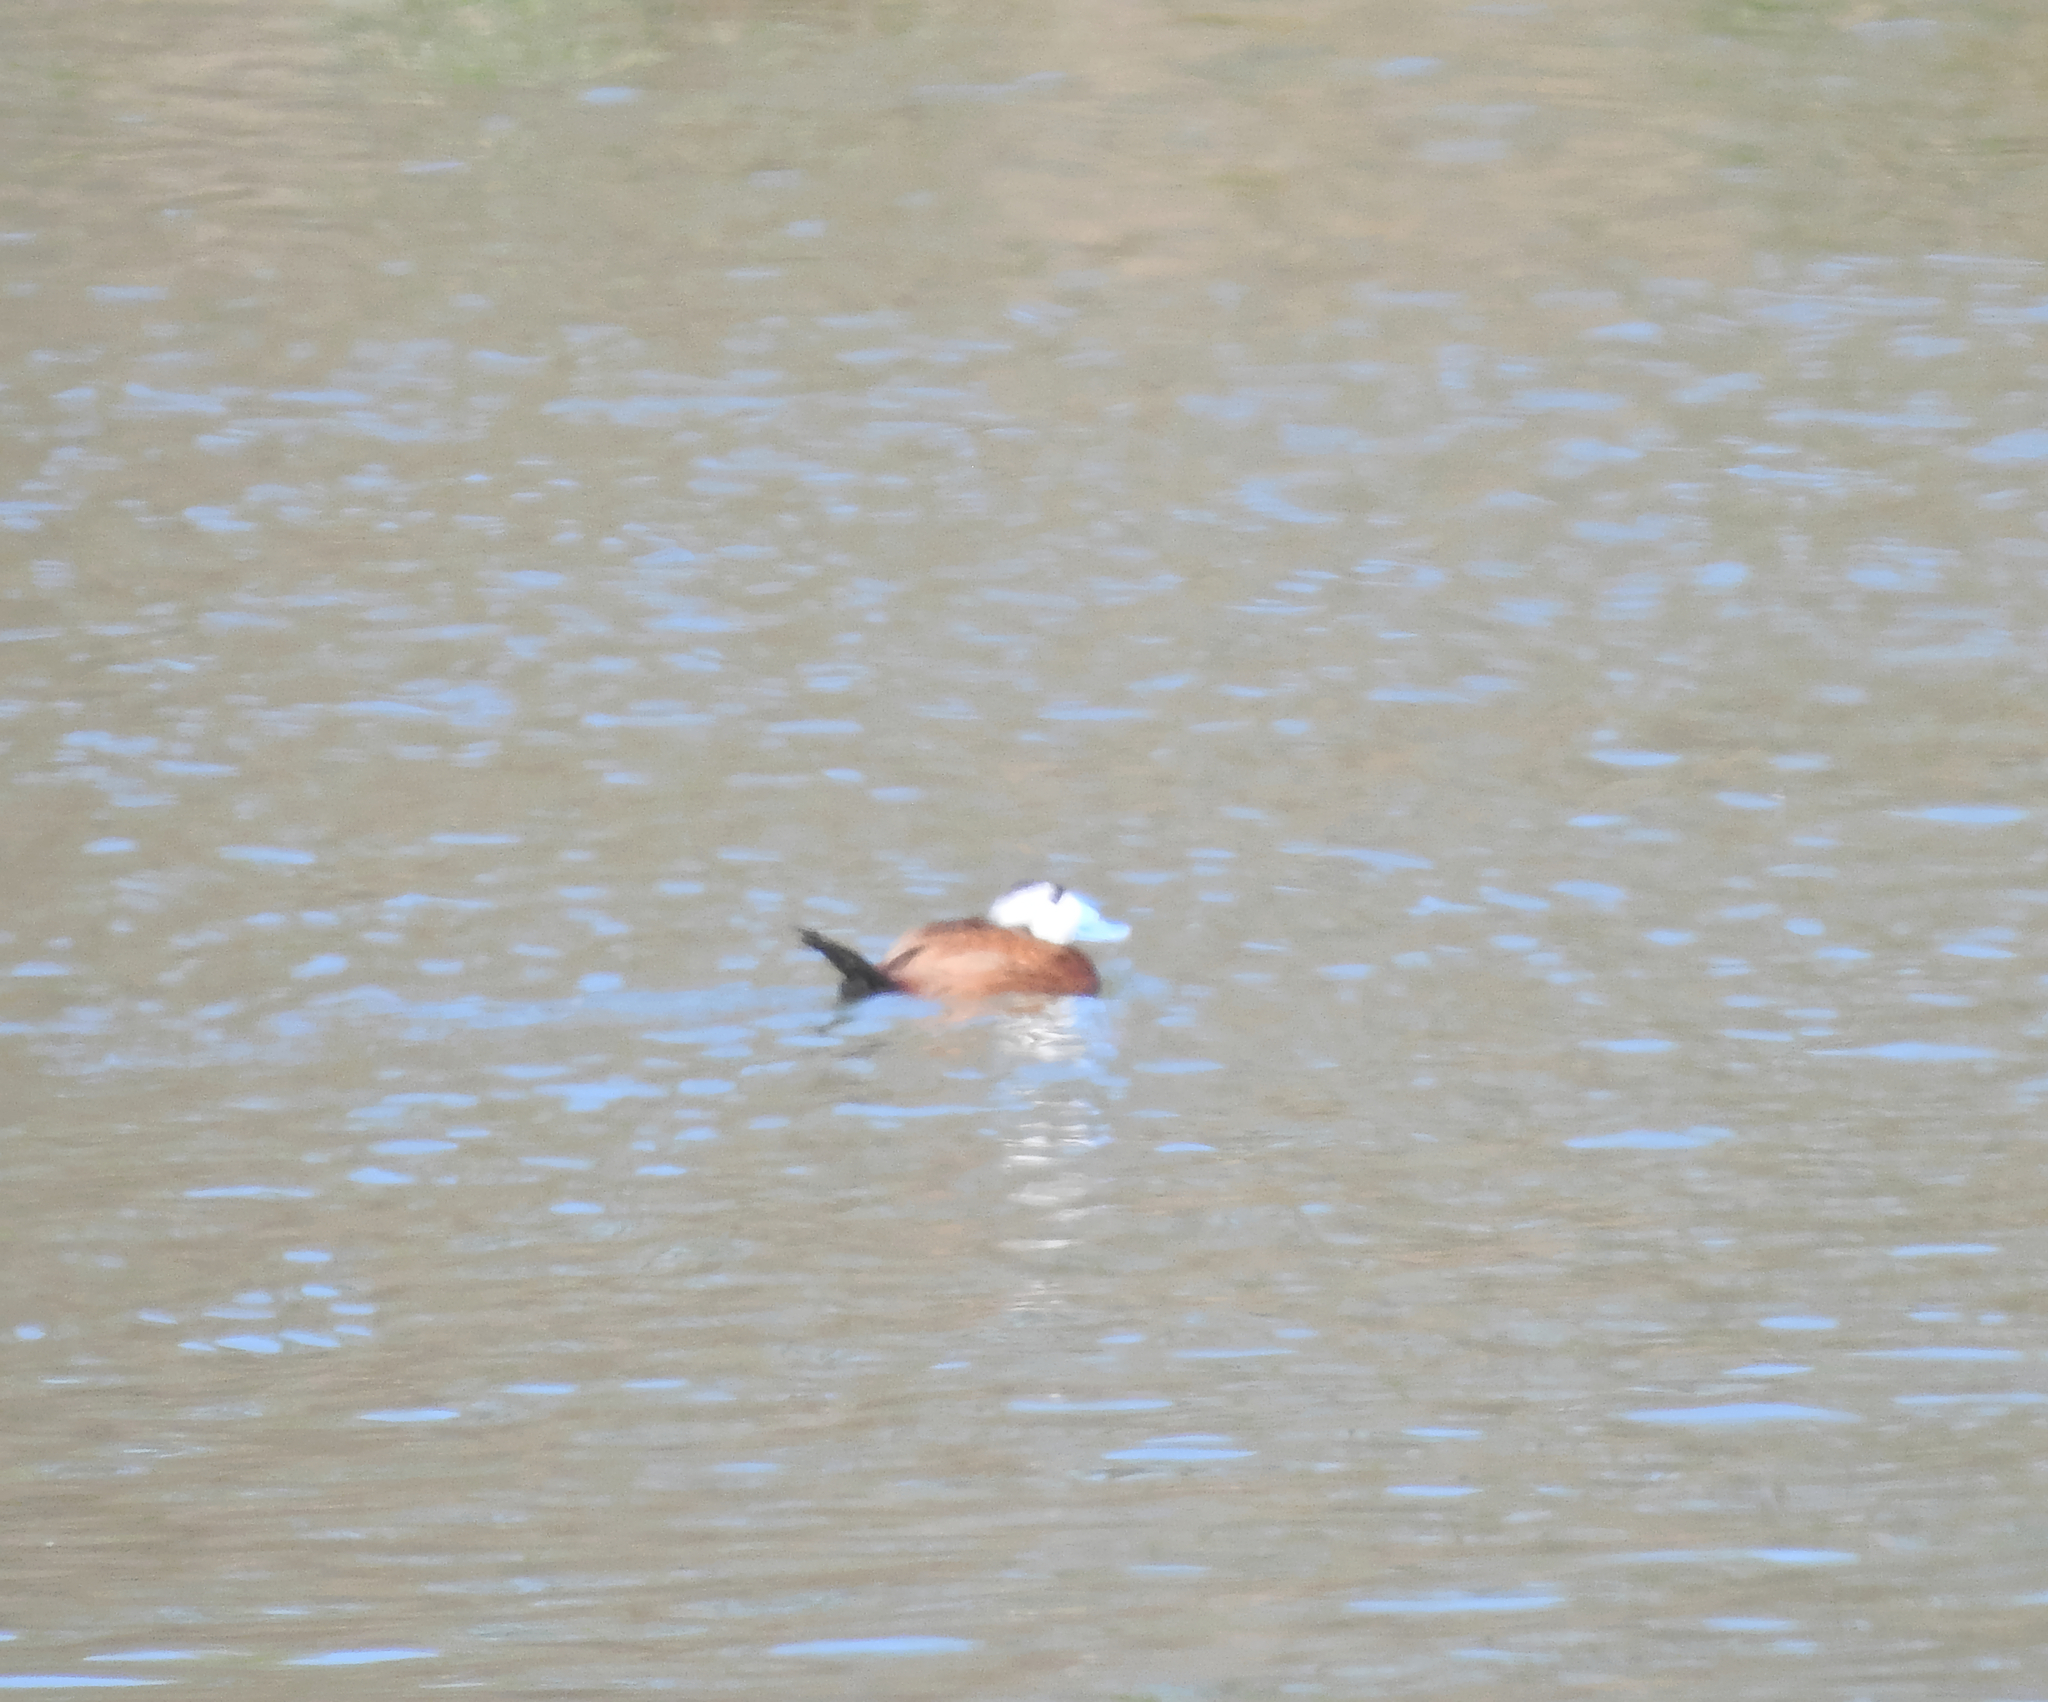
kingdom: Animalia
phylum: Chordata
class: Aves
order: Anseriformes
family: Anatidae
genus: Oxyura
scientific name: Oxyura leucocephala
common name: White-headed duck
